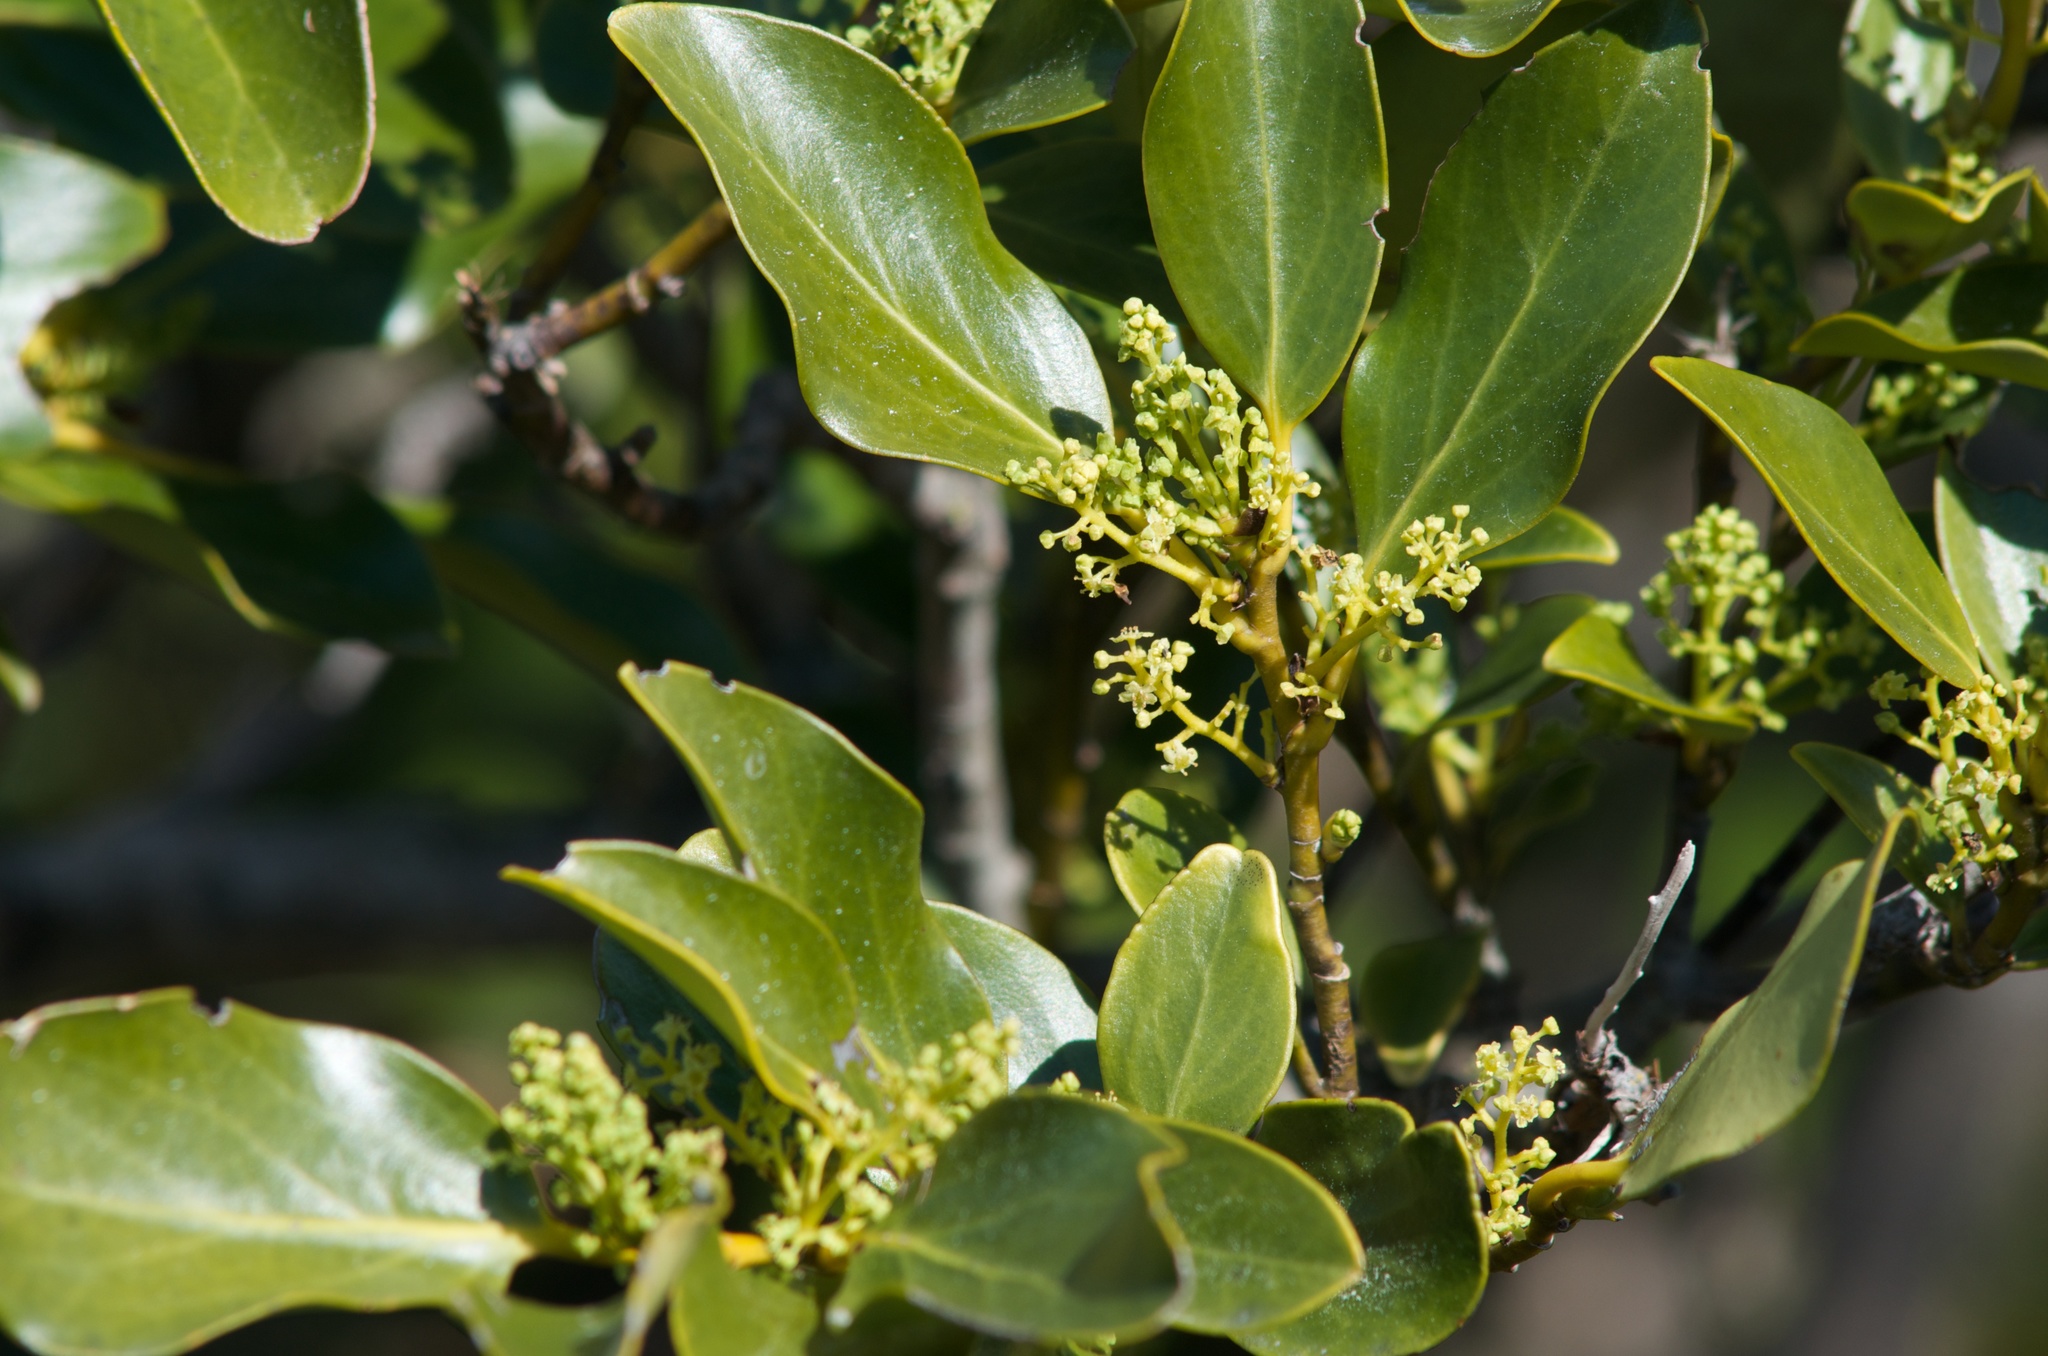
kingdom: Plantae
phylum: Tracheophyta
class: Magnoliopsida
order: Apiales
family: Griseliniaceae
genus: Griselinia
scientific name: Griselinia littoralis
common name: New zealand broadleaf
